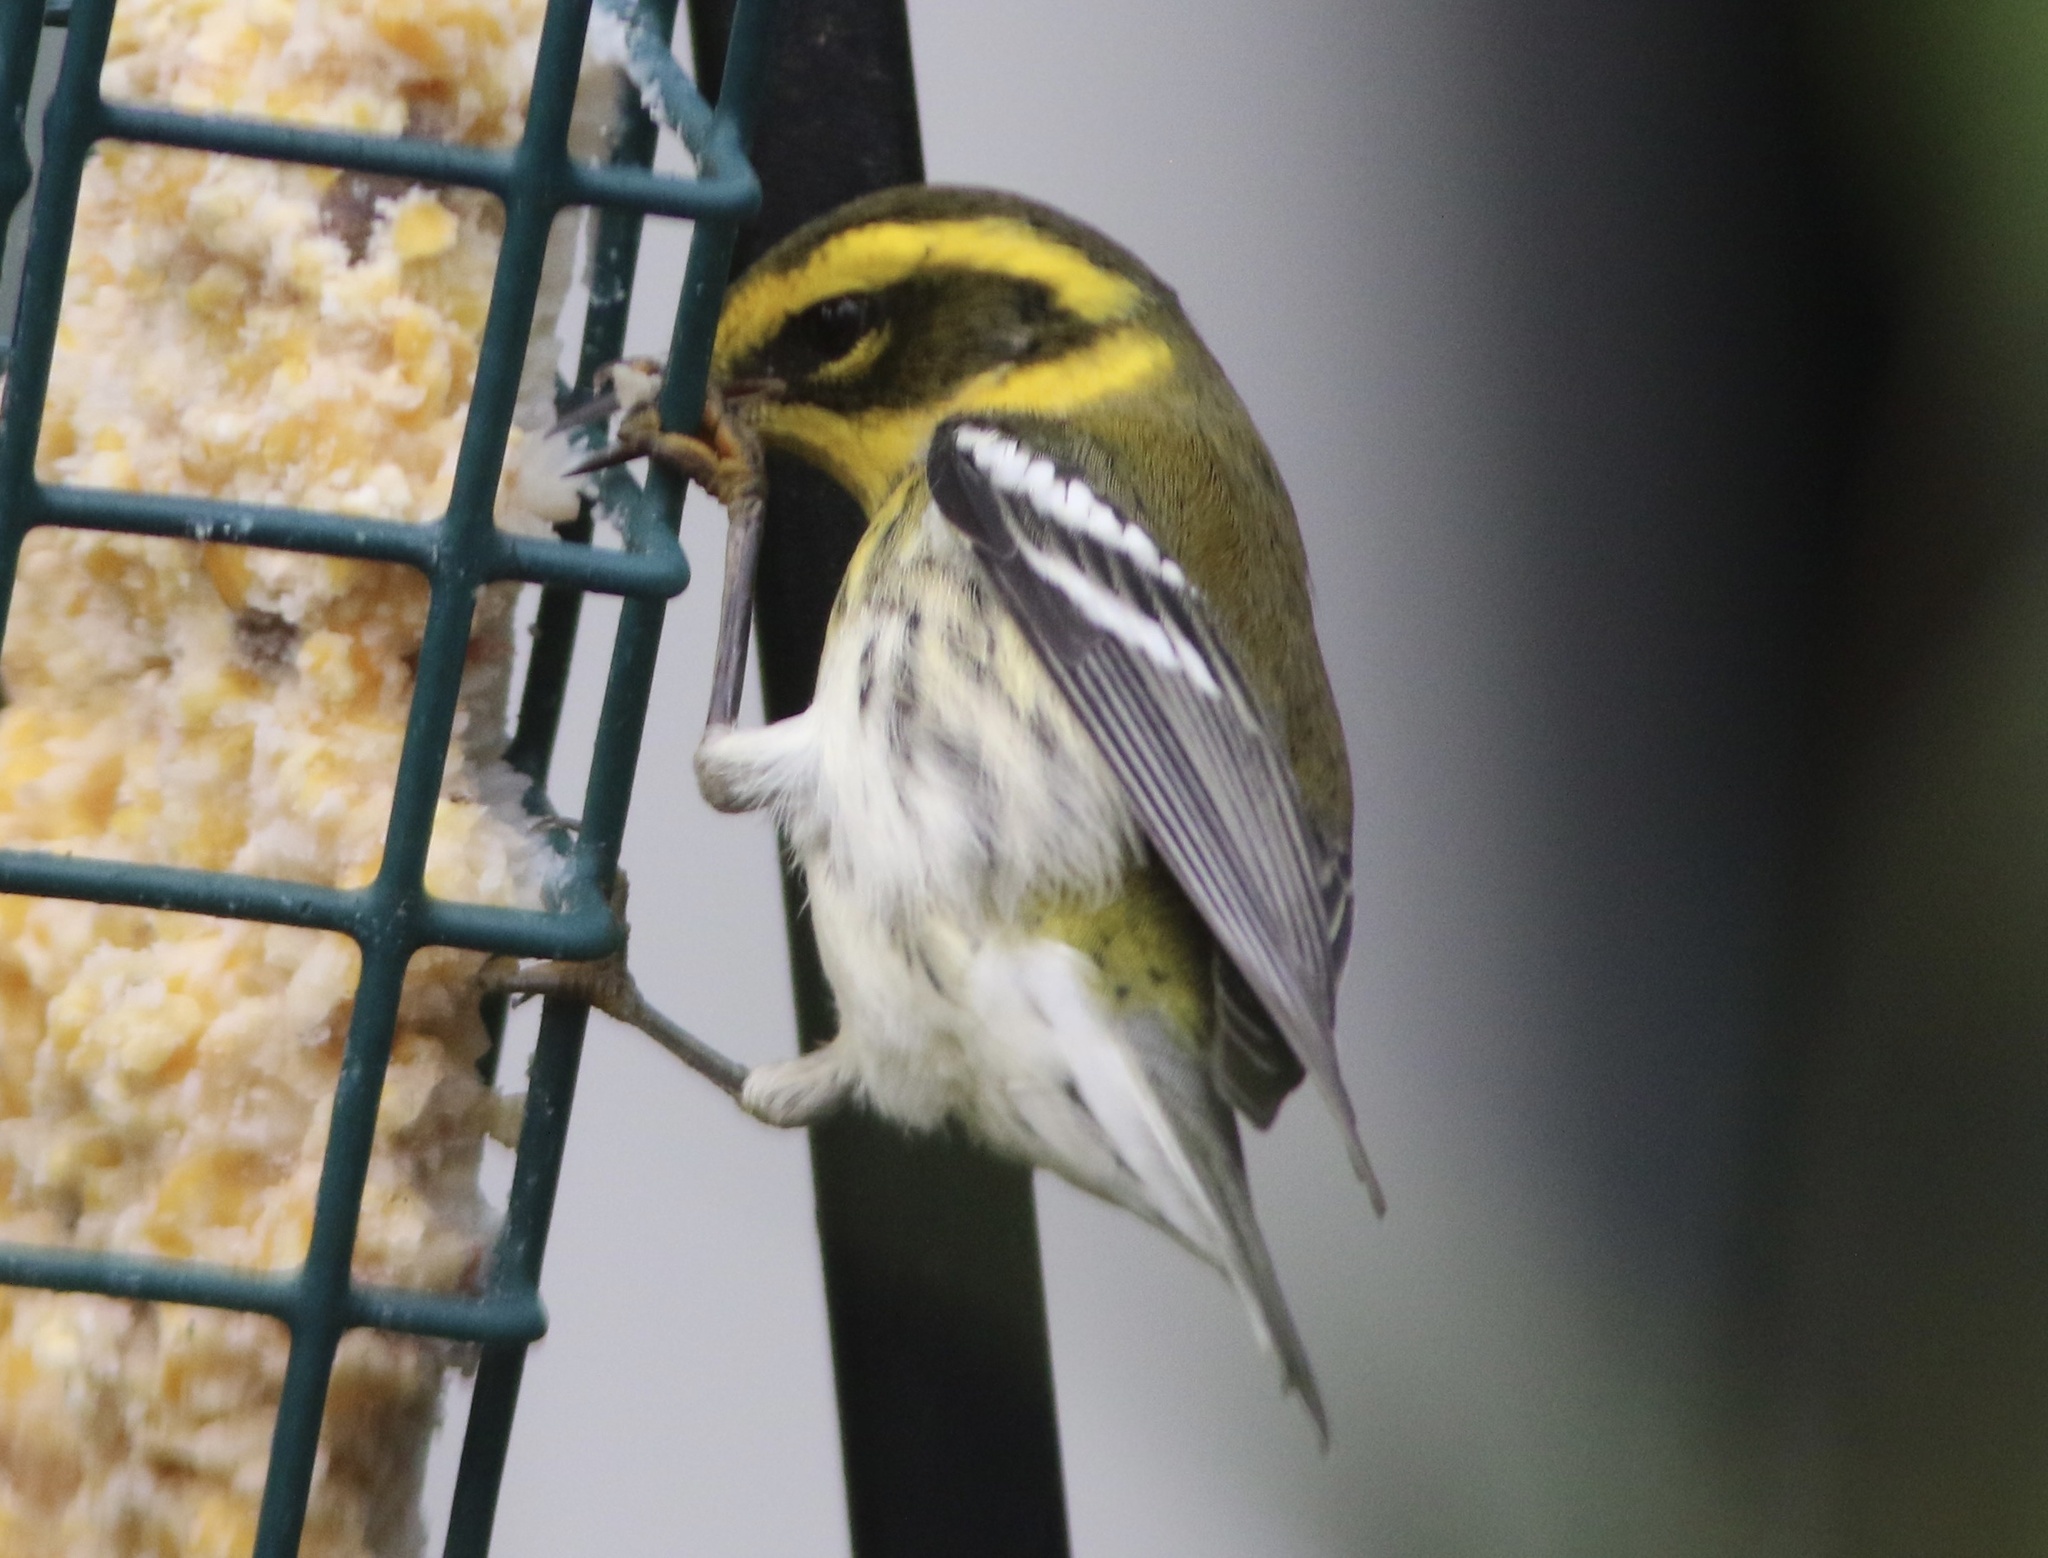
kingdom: Animalia
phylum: Chordata
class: Aves
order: Passeriformes
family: Parulidae
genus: Setophaga
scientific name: Setophaga townsendi
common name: Townsend's warbler
